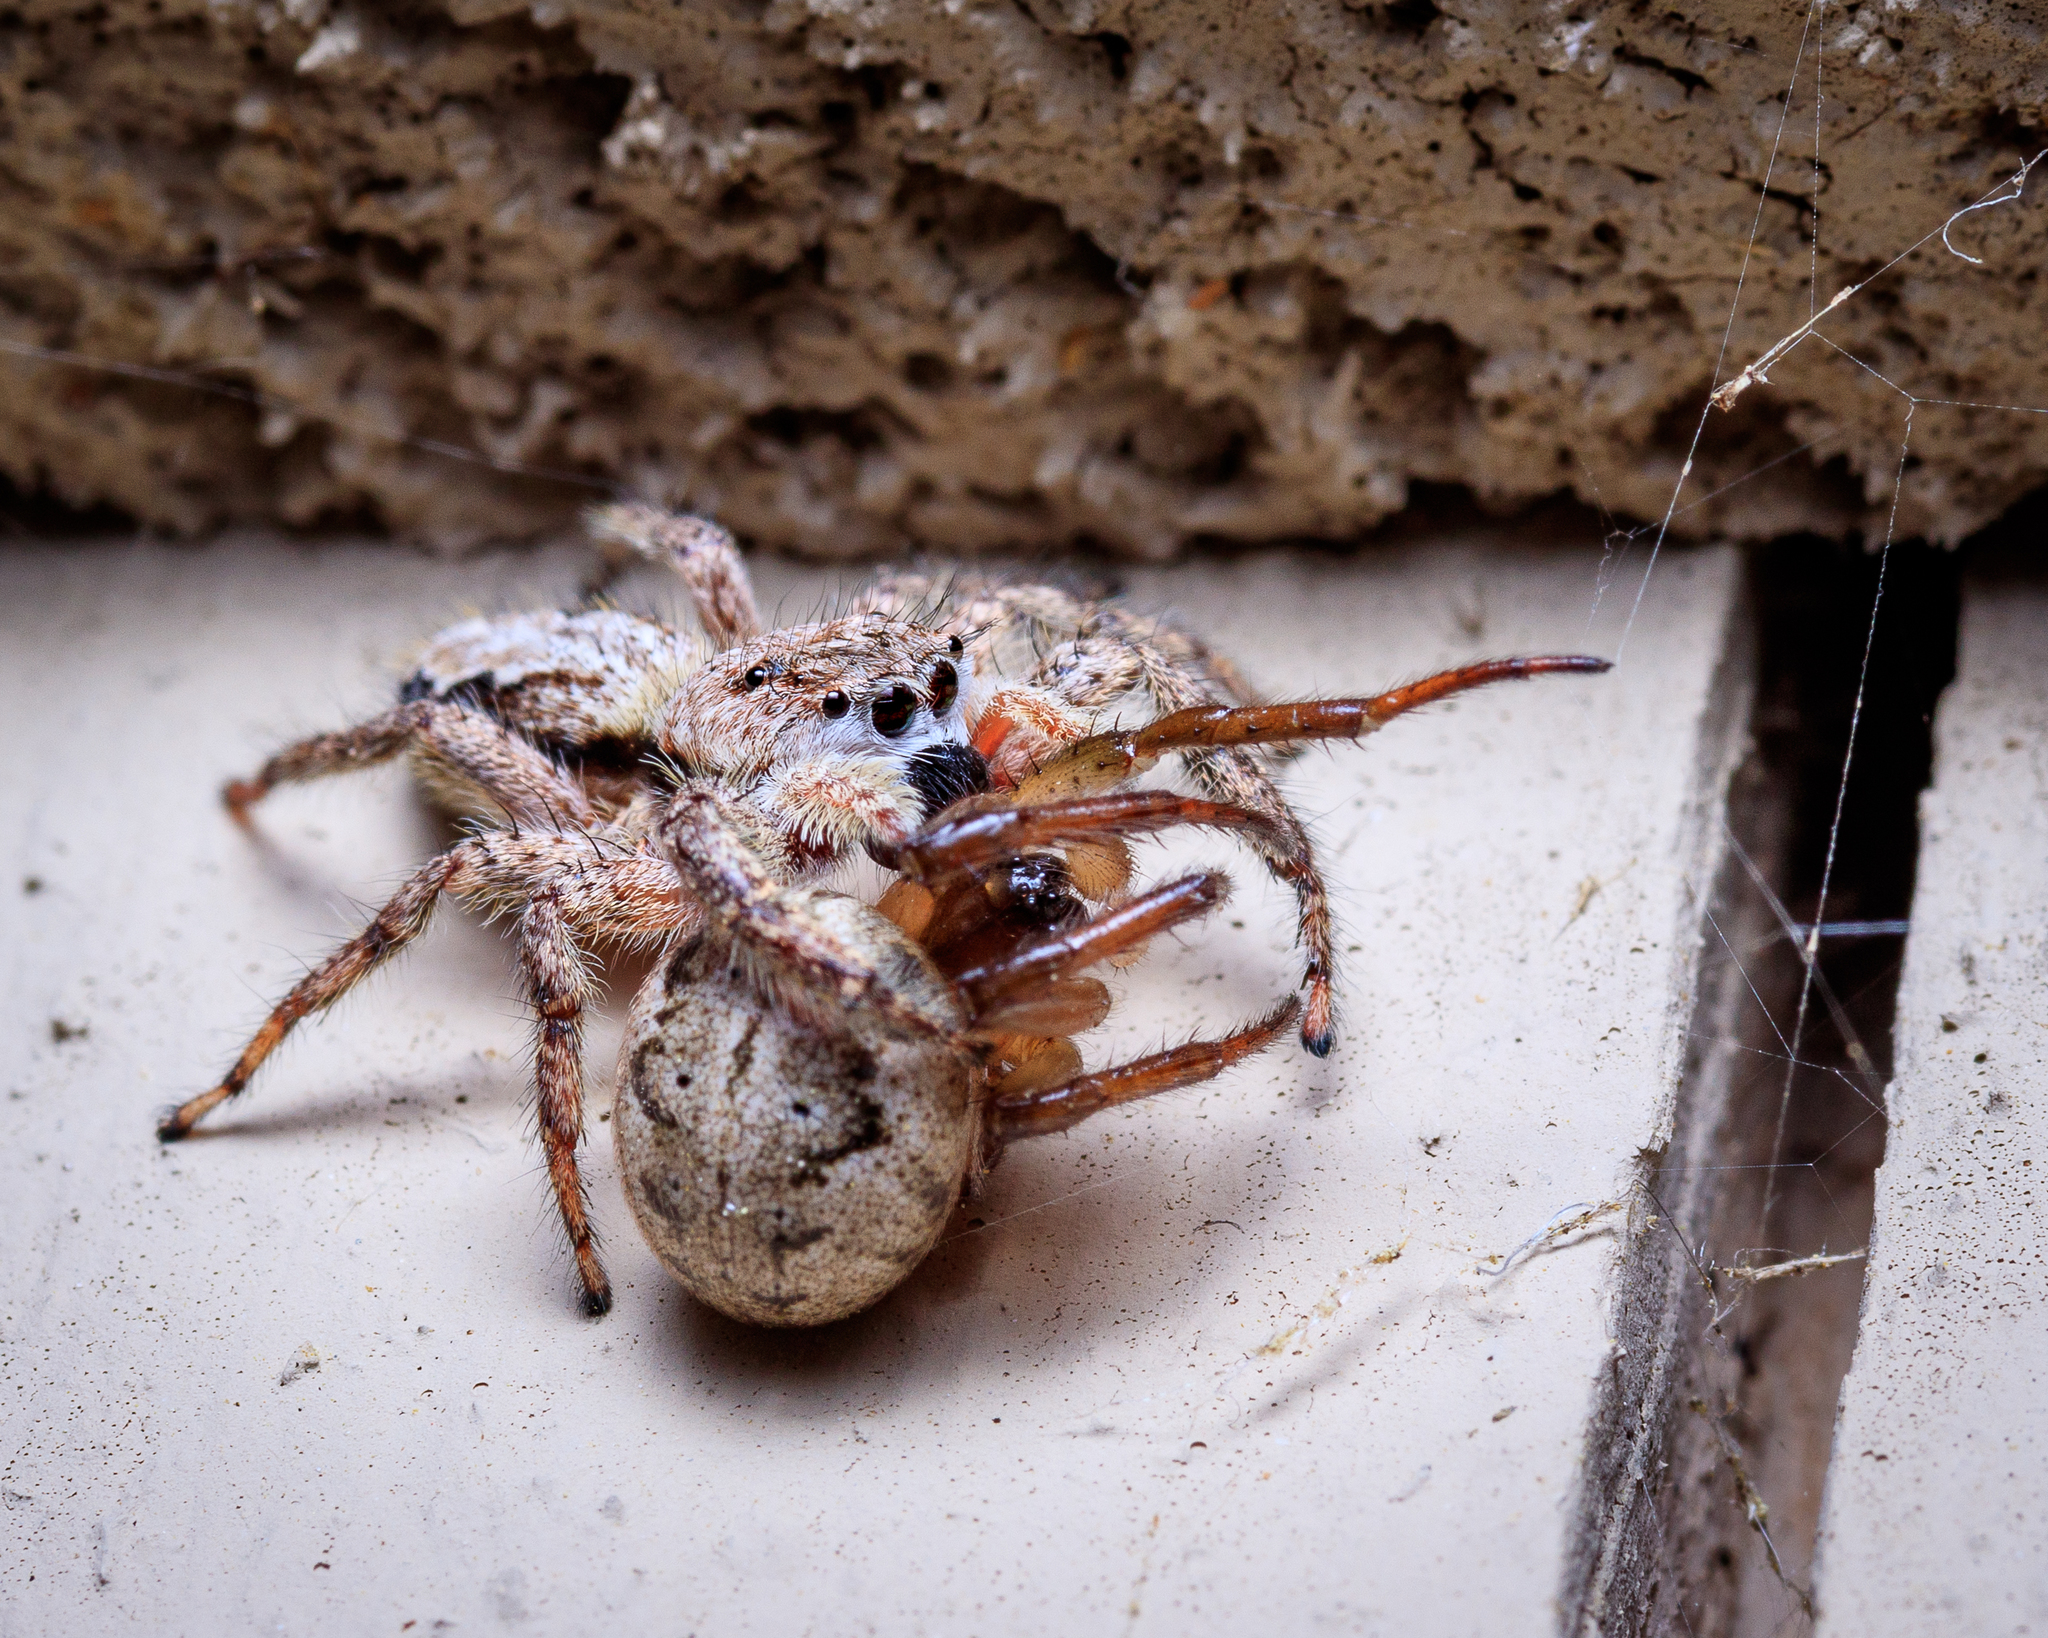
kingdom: Animalia
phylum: Arthropoda
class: Arachnida
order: Araneae
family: Salticidae
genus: Platycryptus
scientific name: Platycryptus undatus
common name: Tan jumping spider
